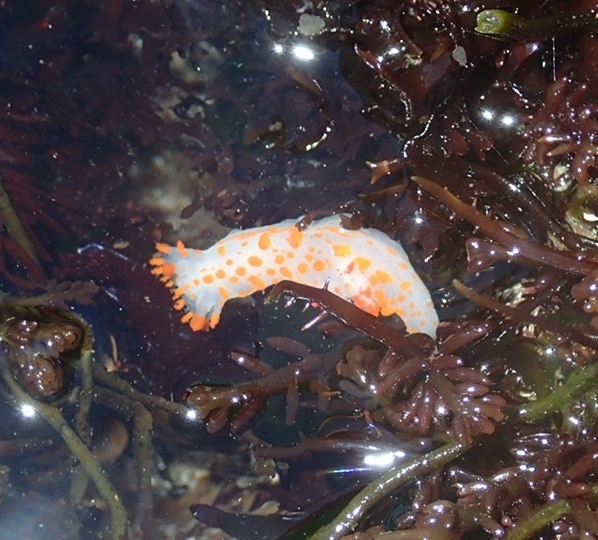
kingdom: Animalia
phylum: Mollusca
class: Gastropoda
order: Nudibranchia
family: Polyceridae
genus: Triopha
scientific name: Triopha catalinae
